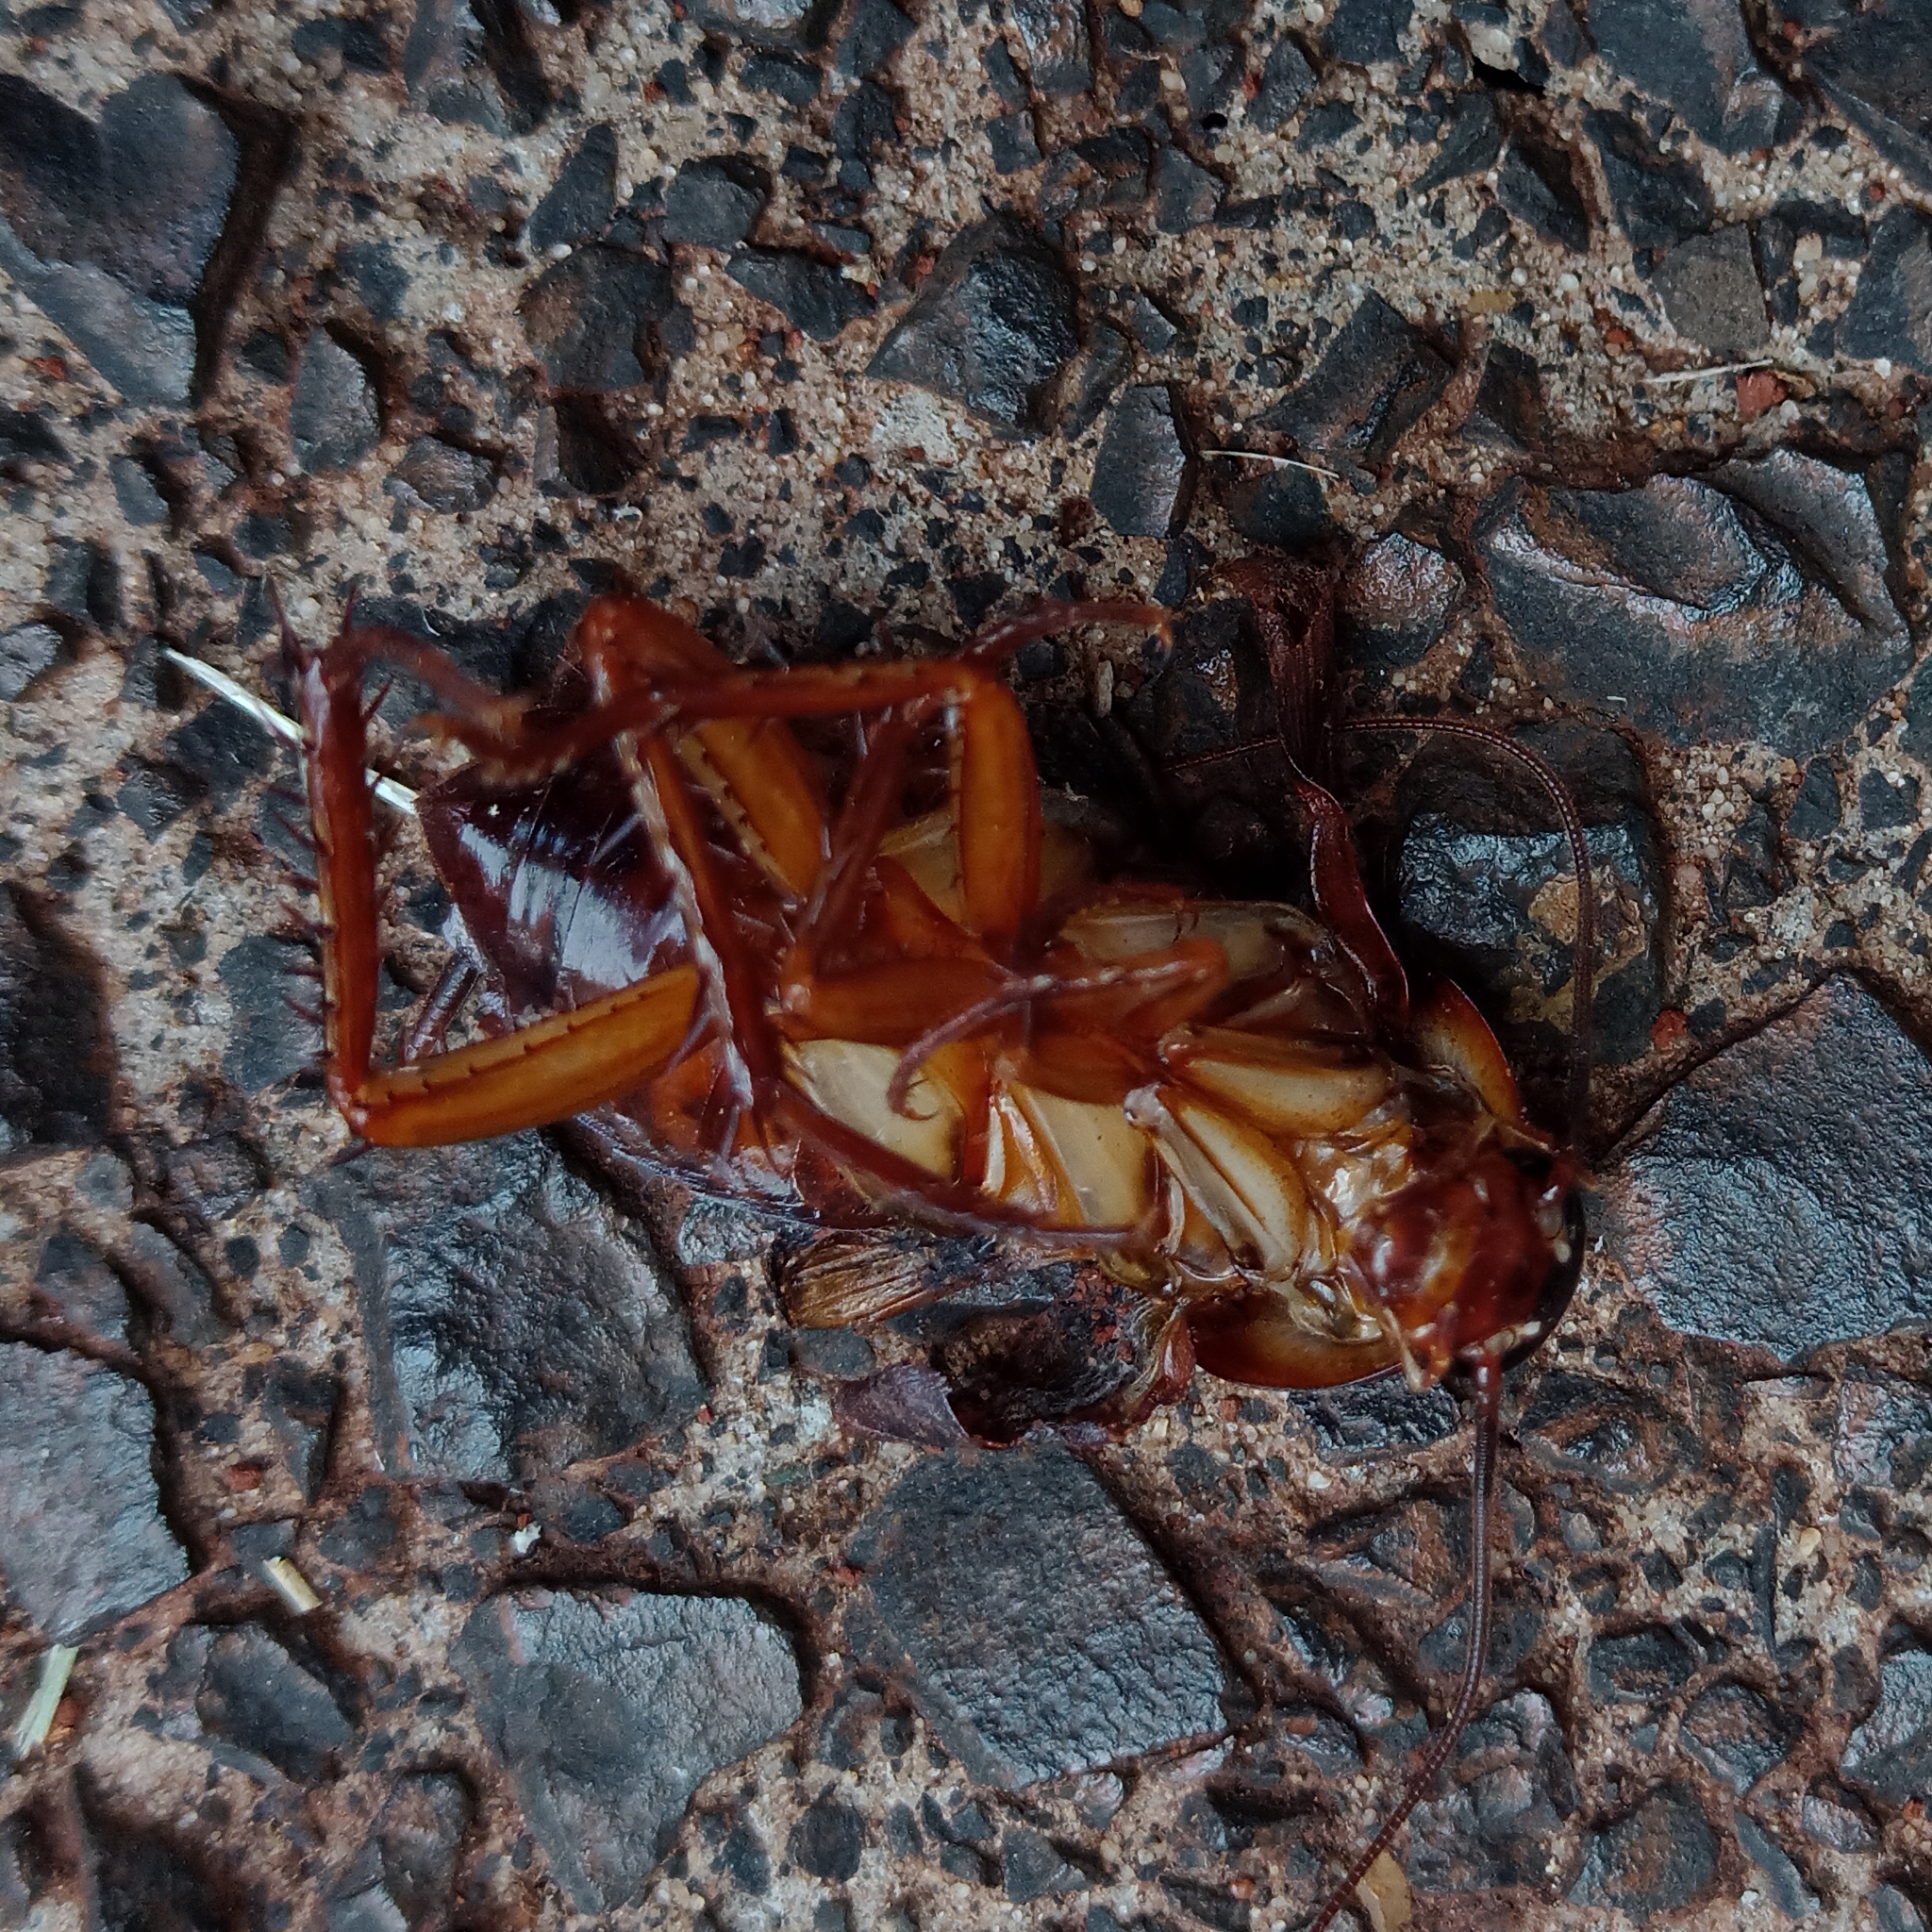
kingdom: Animalia
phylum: Arthropoda
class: Insecta
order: Blattodea
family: Blattidae
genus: Periplaneta
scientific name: Periplaneta americana
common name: American cockroach
